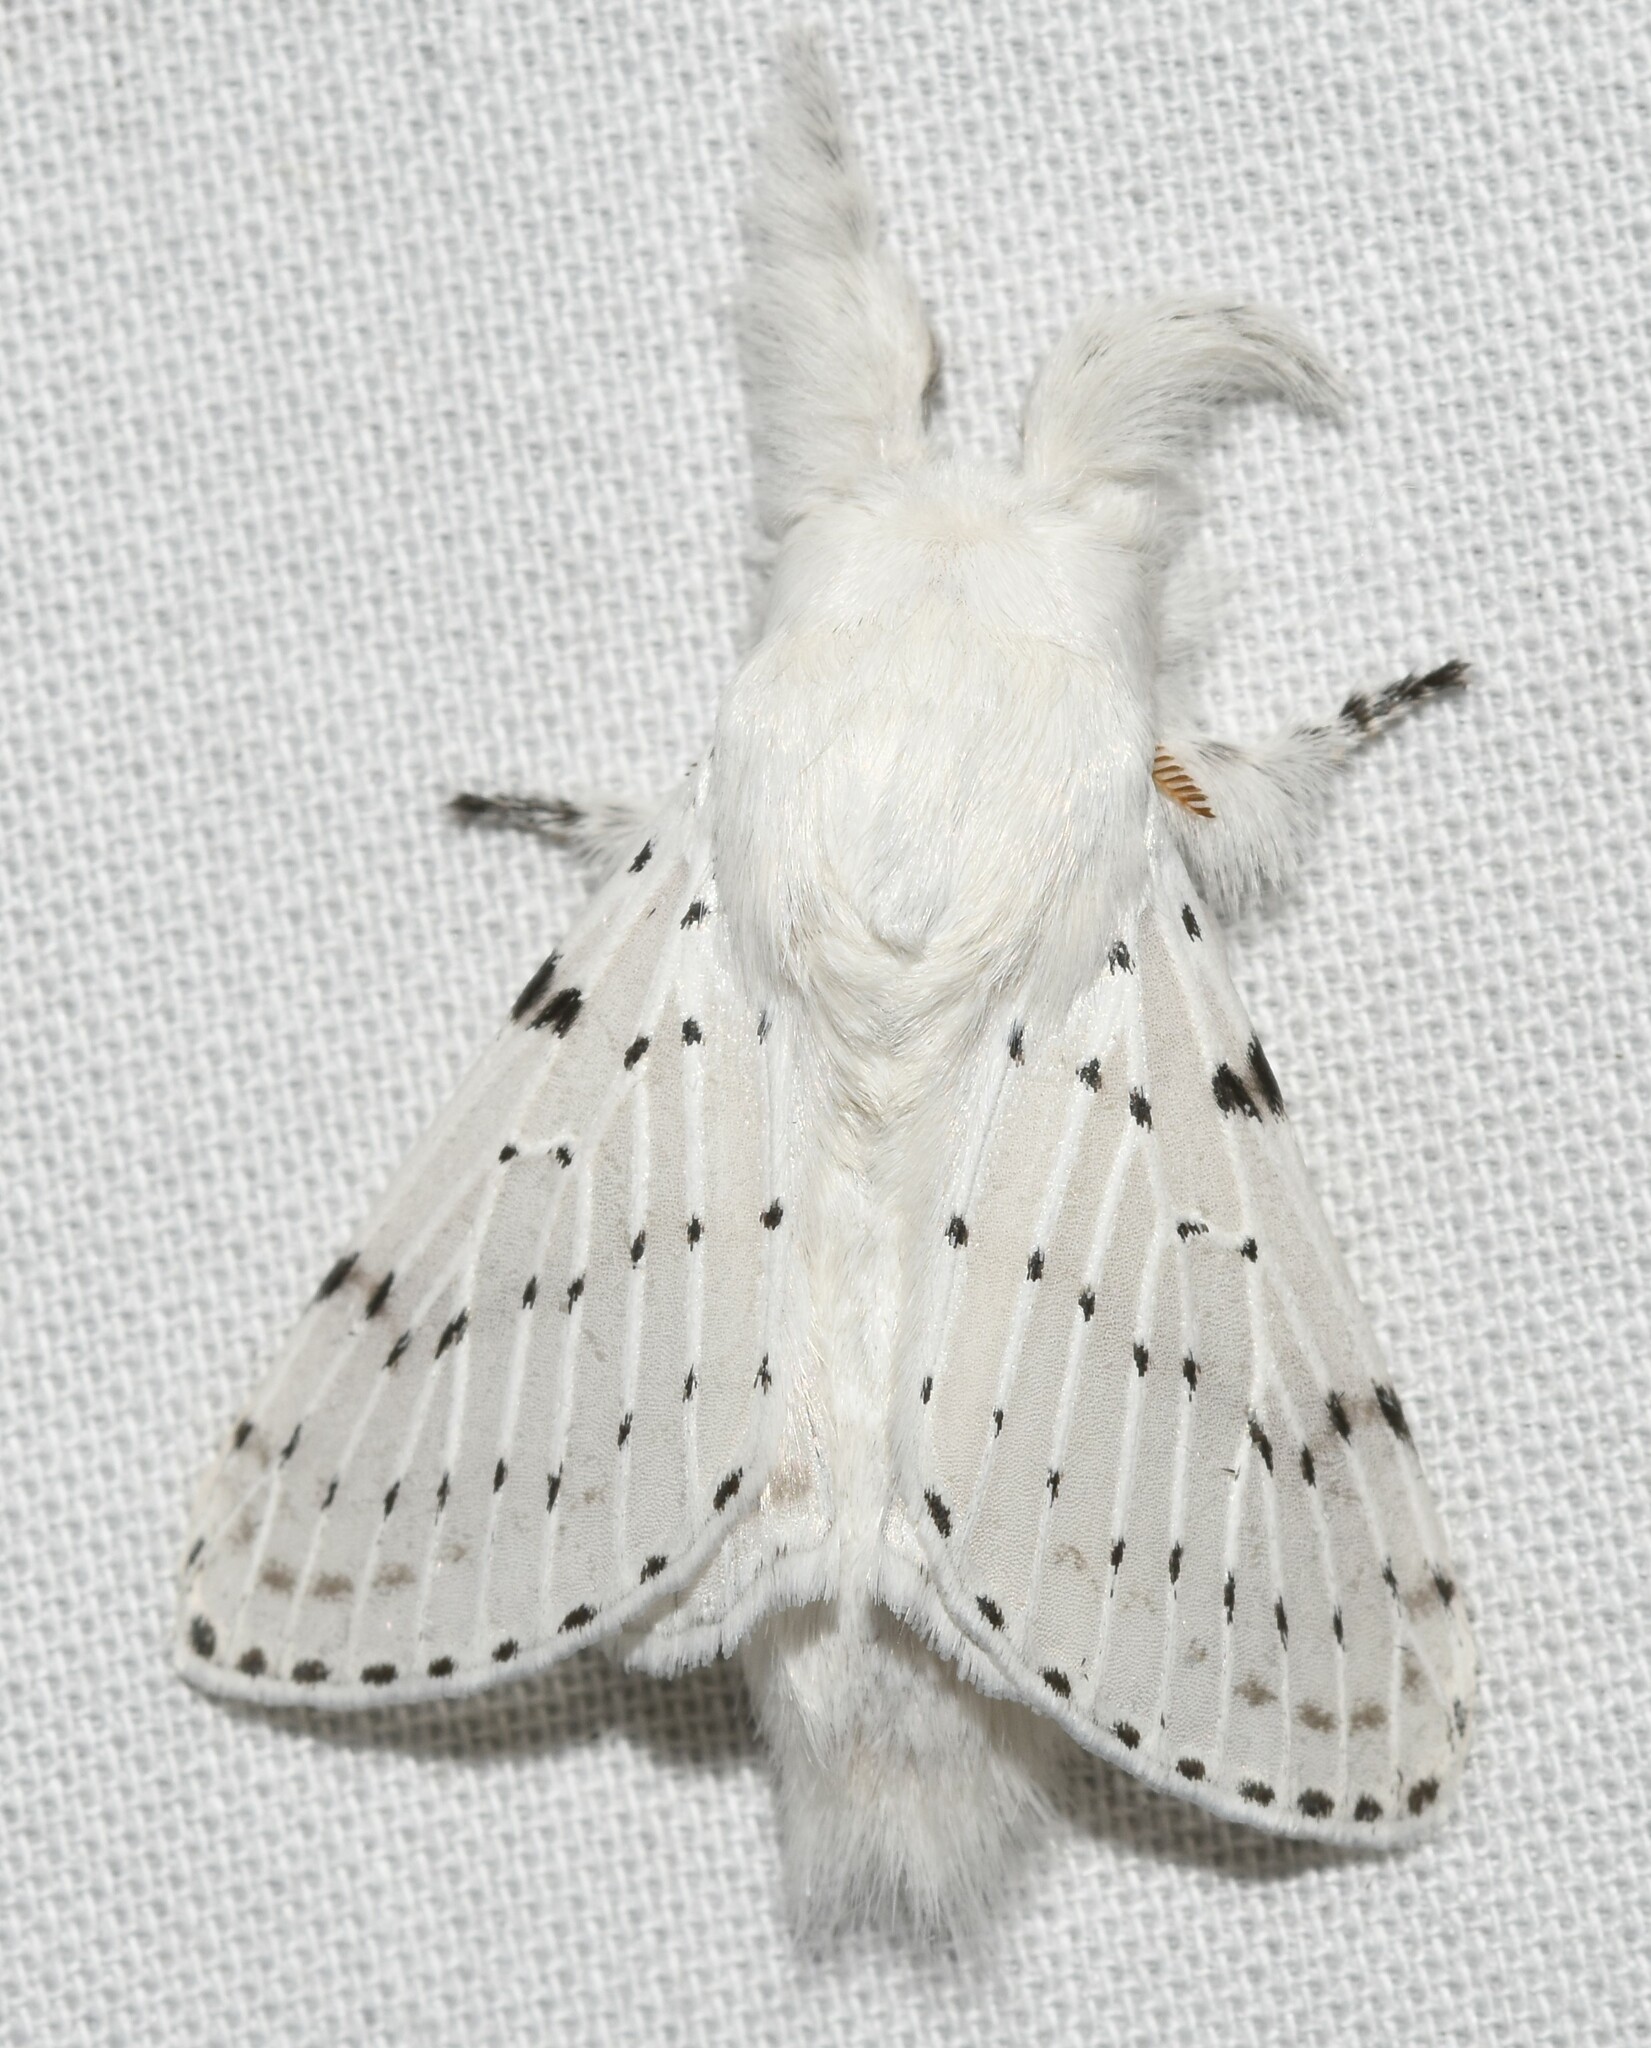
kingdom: Animalia
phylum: Arthropoda
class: Insecta
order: Lepidoptera
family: Lasiocampidae
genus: Artace
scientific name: Artace cribrarius
